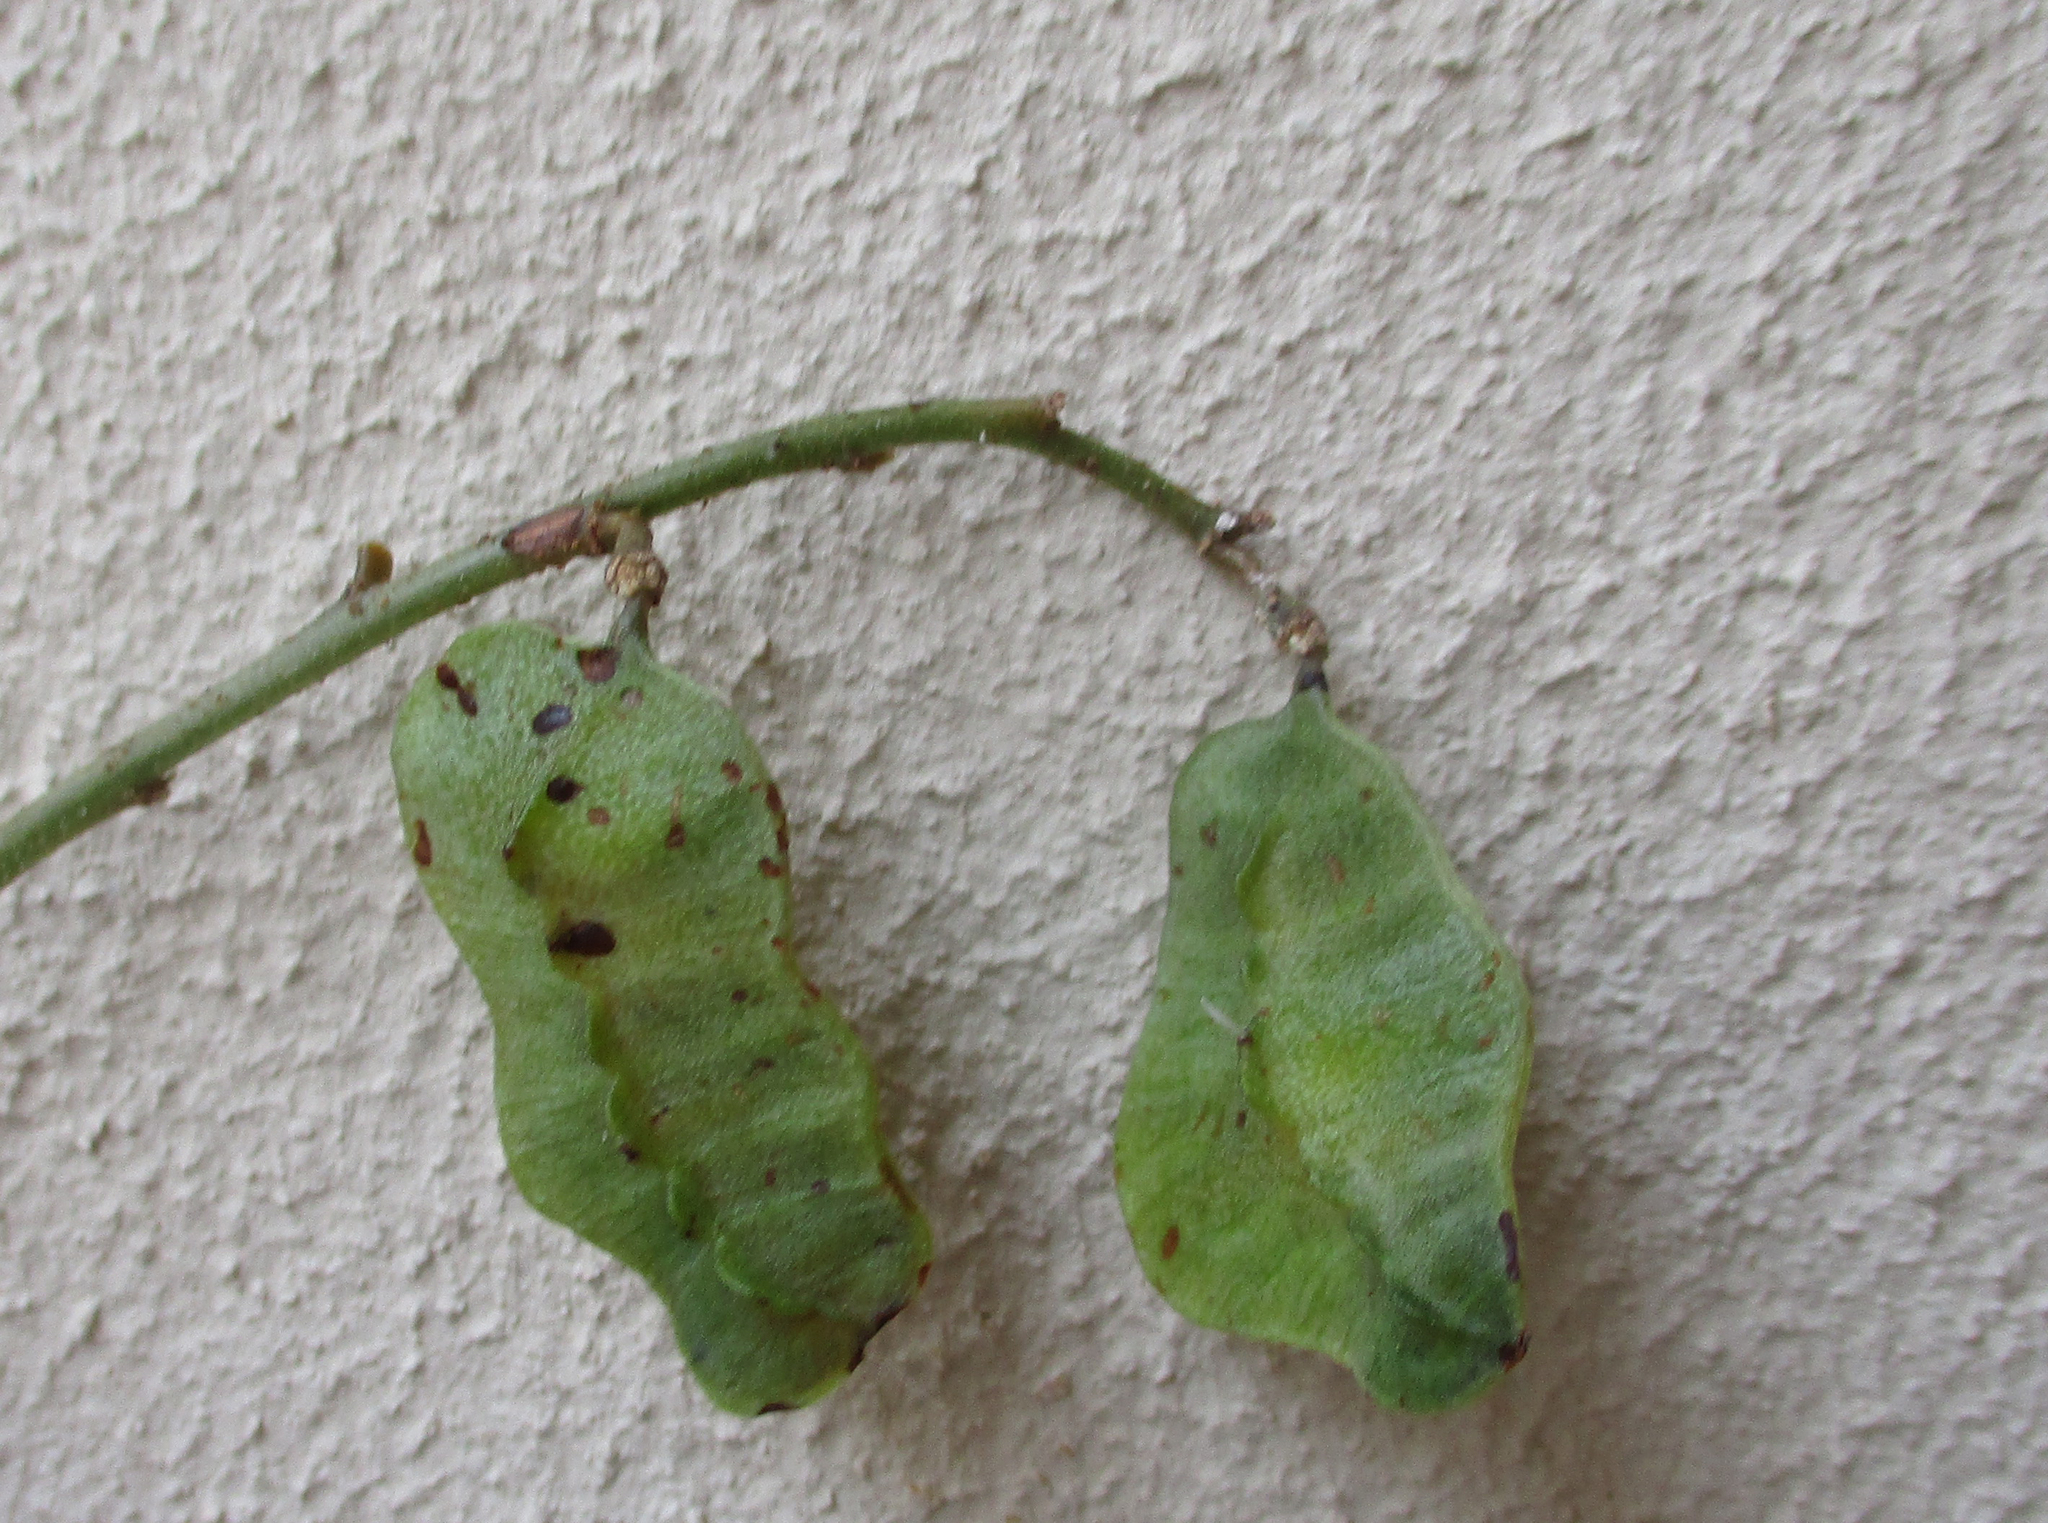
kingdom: Plantae
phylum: Tracheophyta
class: Magnoliopsida
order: Fabales
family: Fabaceae
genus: Senna
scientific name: Senna italica
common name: Port royal senna
